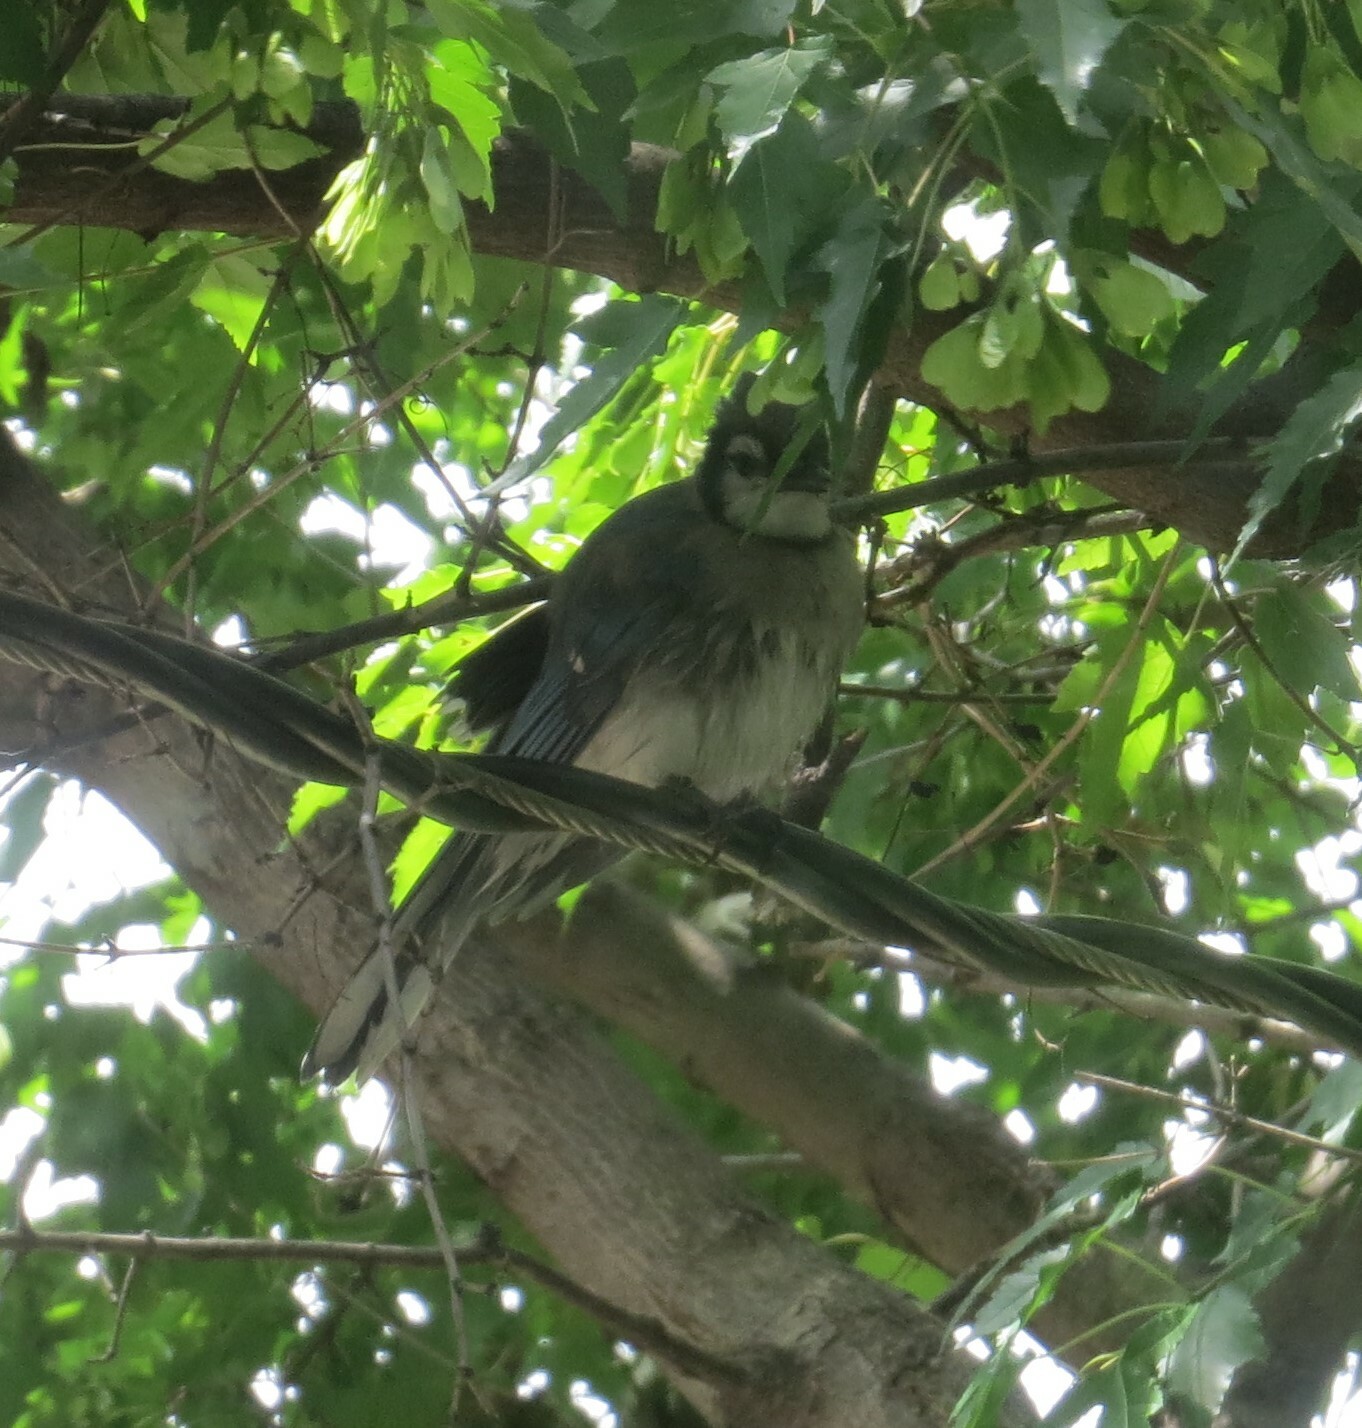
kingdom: Animalia
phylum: Chordata
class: Aves
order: Passeriformes
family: Corvidae
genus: Cyanocitta
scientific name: Cyanocitta cristata
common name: Blue jay
